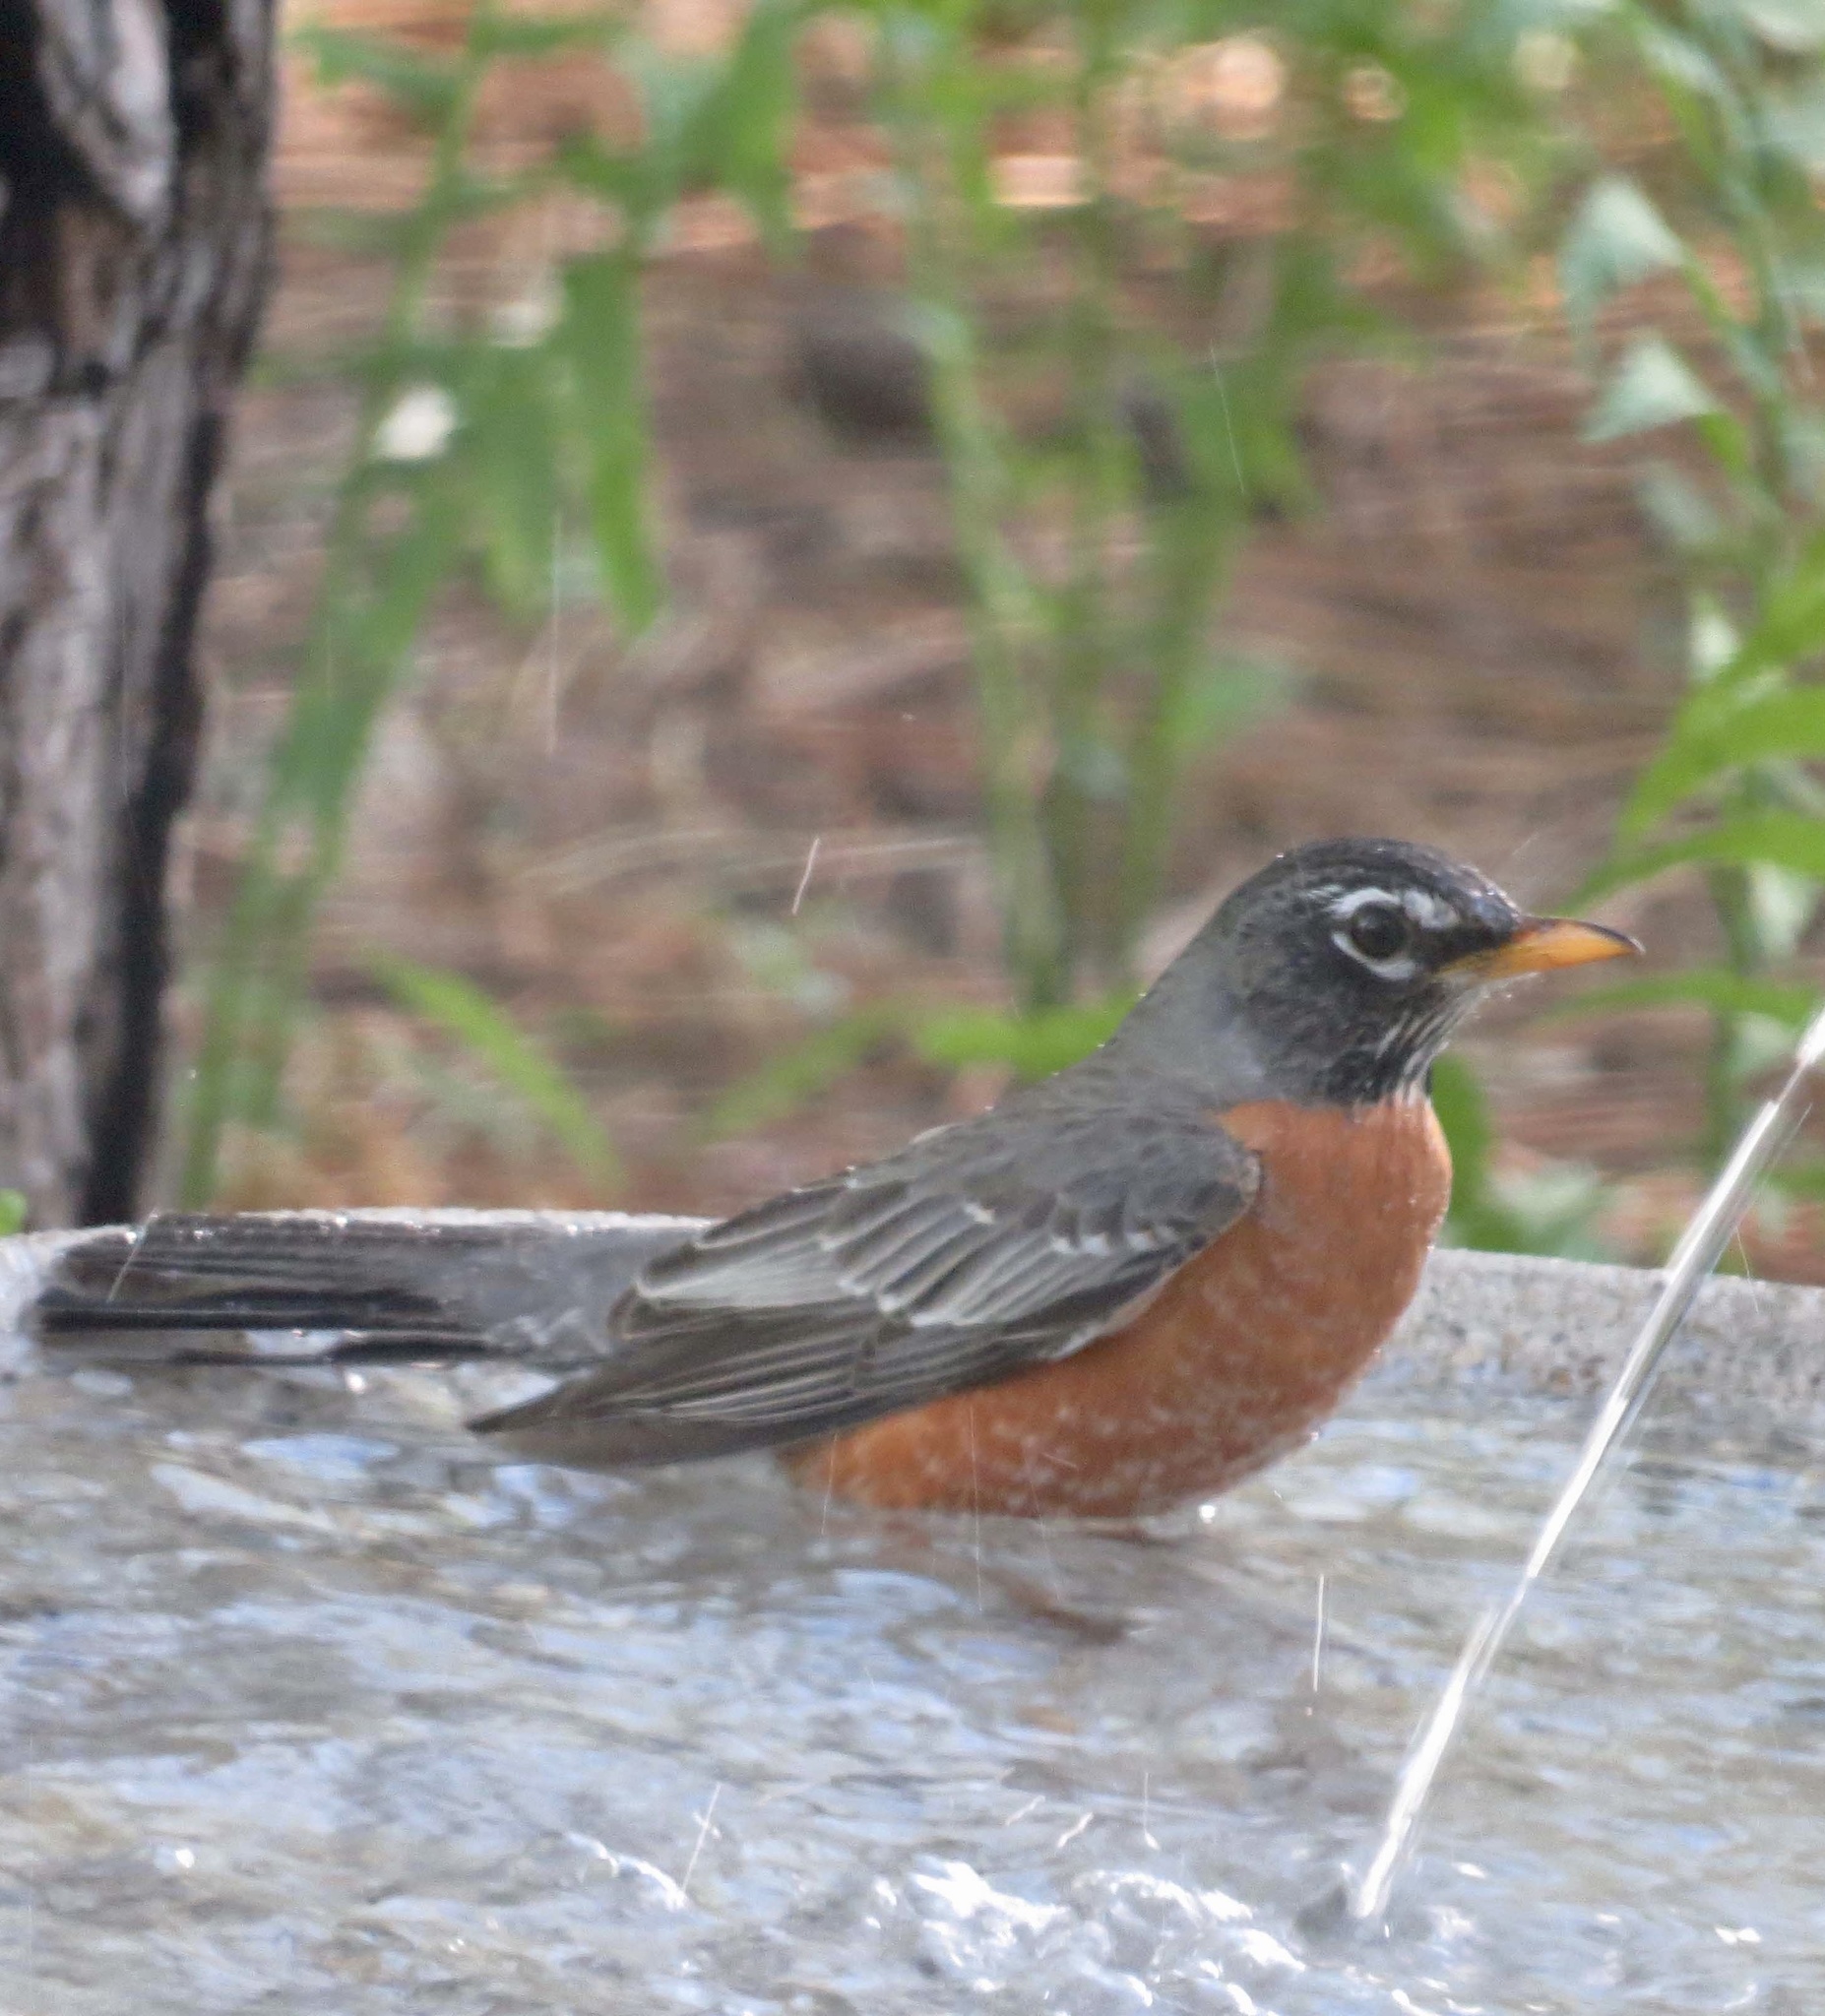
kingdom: Animalia
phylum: Chordata
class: Aves
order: Passeriformes
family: Turdidae
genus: Turdus
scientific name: Turdus migratorius
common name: American robin
